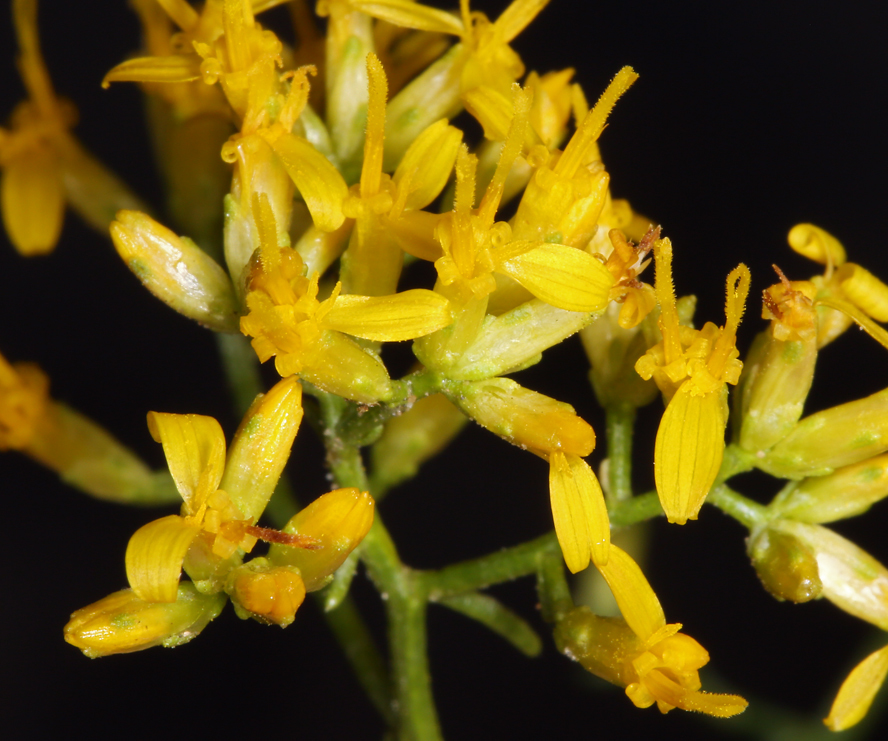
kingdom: Plantae
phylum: Tracheophyta
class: Magnoliopsida
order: Asterales
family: Asteraceae
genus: Gutierrezia
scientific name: Gutierrezia microcephala
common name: Thread snakeweed
